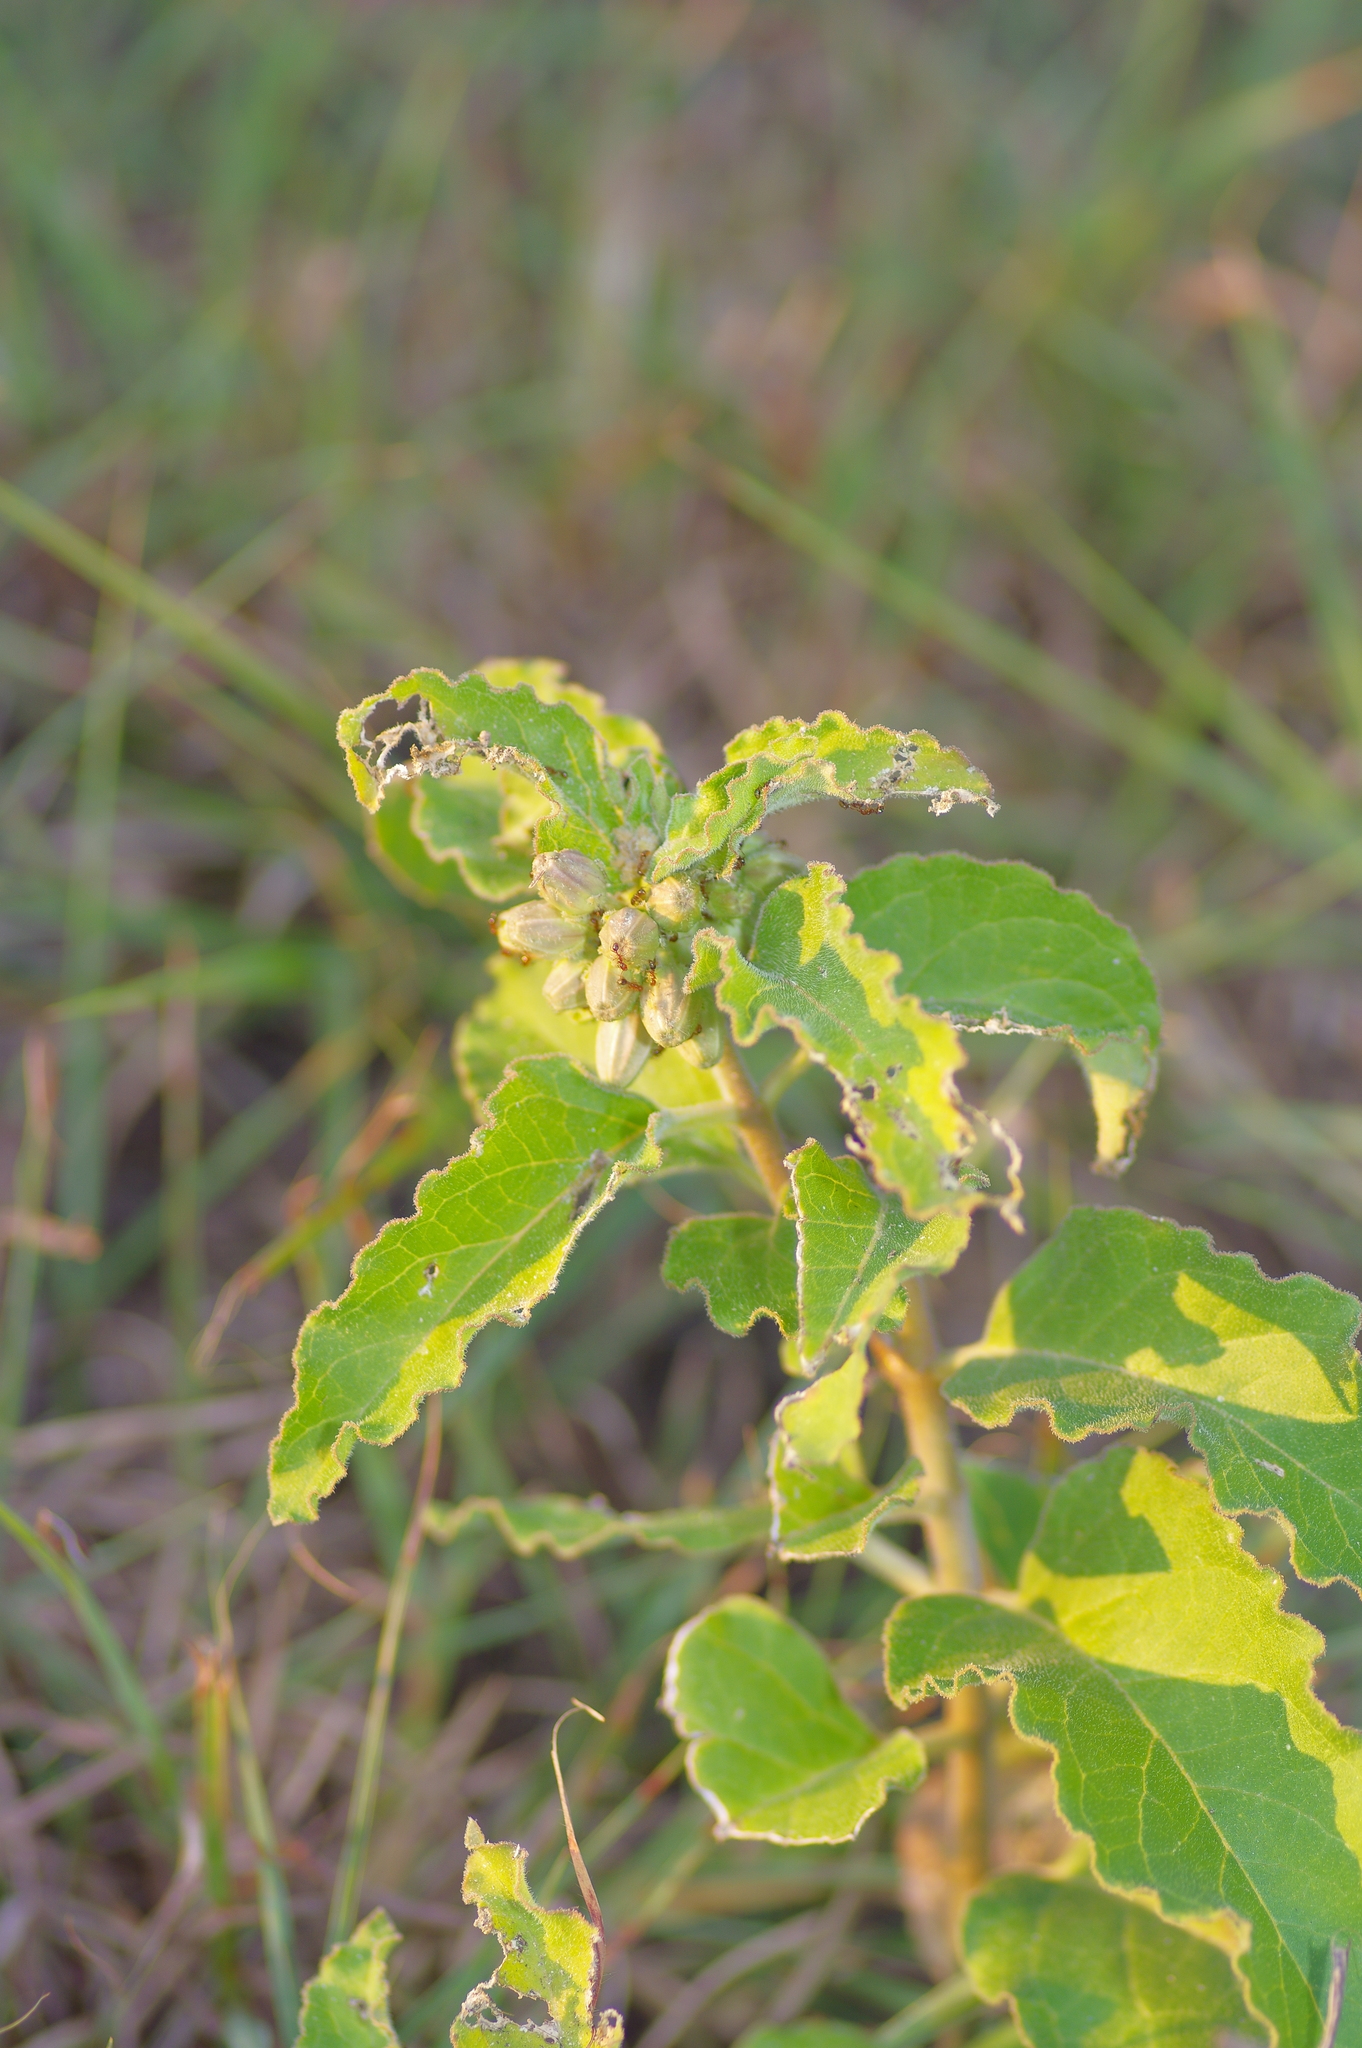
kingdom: Plantae
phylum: Tracheophyta
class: Magnoliopsida
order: Gentianales
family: Apocynaceae
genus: Asclepias
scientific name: Asclepias oenotheroides
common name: Zizotes milkweed
